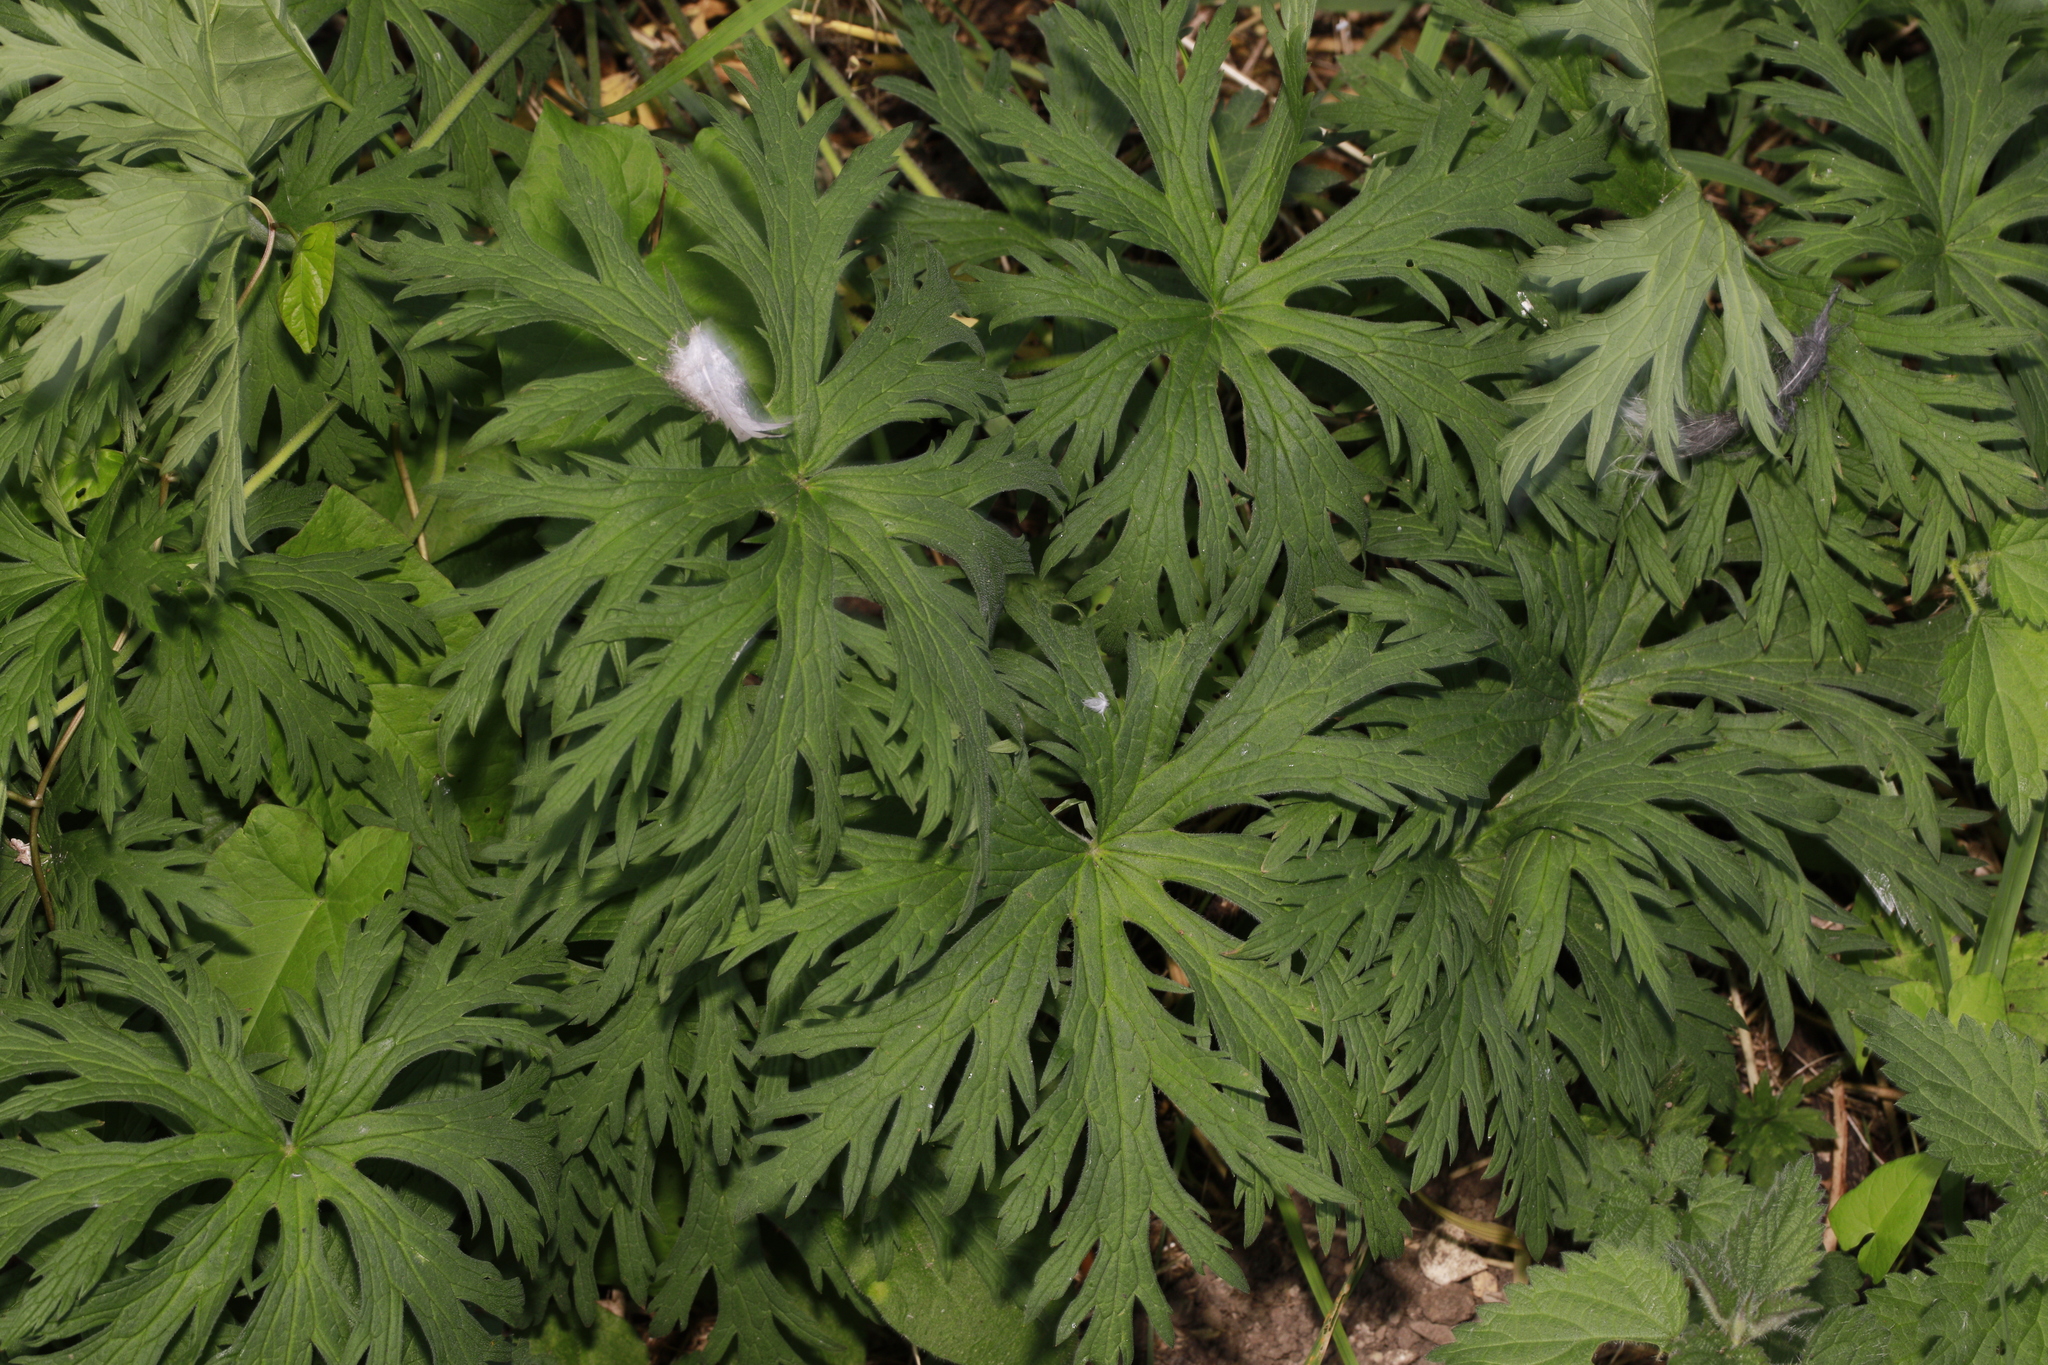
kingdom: Plantae
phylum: Tracheophyta
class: Magnoliopsida
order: Geraniales
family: Geraniaceae
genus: Geranium
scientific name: Geranium pratense
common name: Meadow crane's-bill
